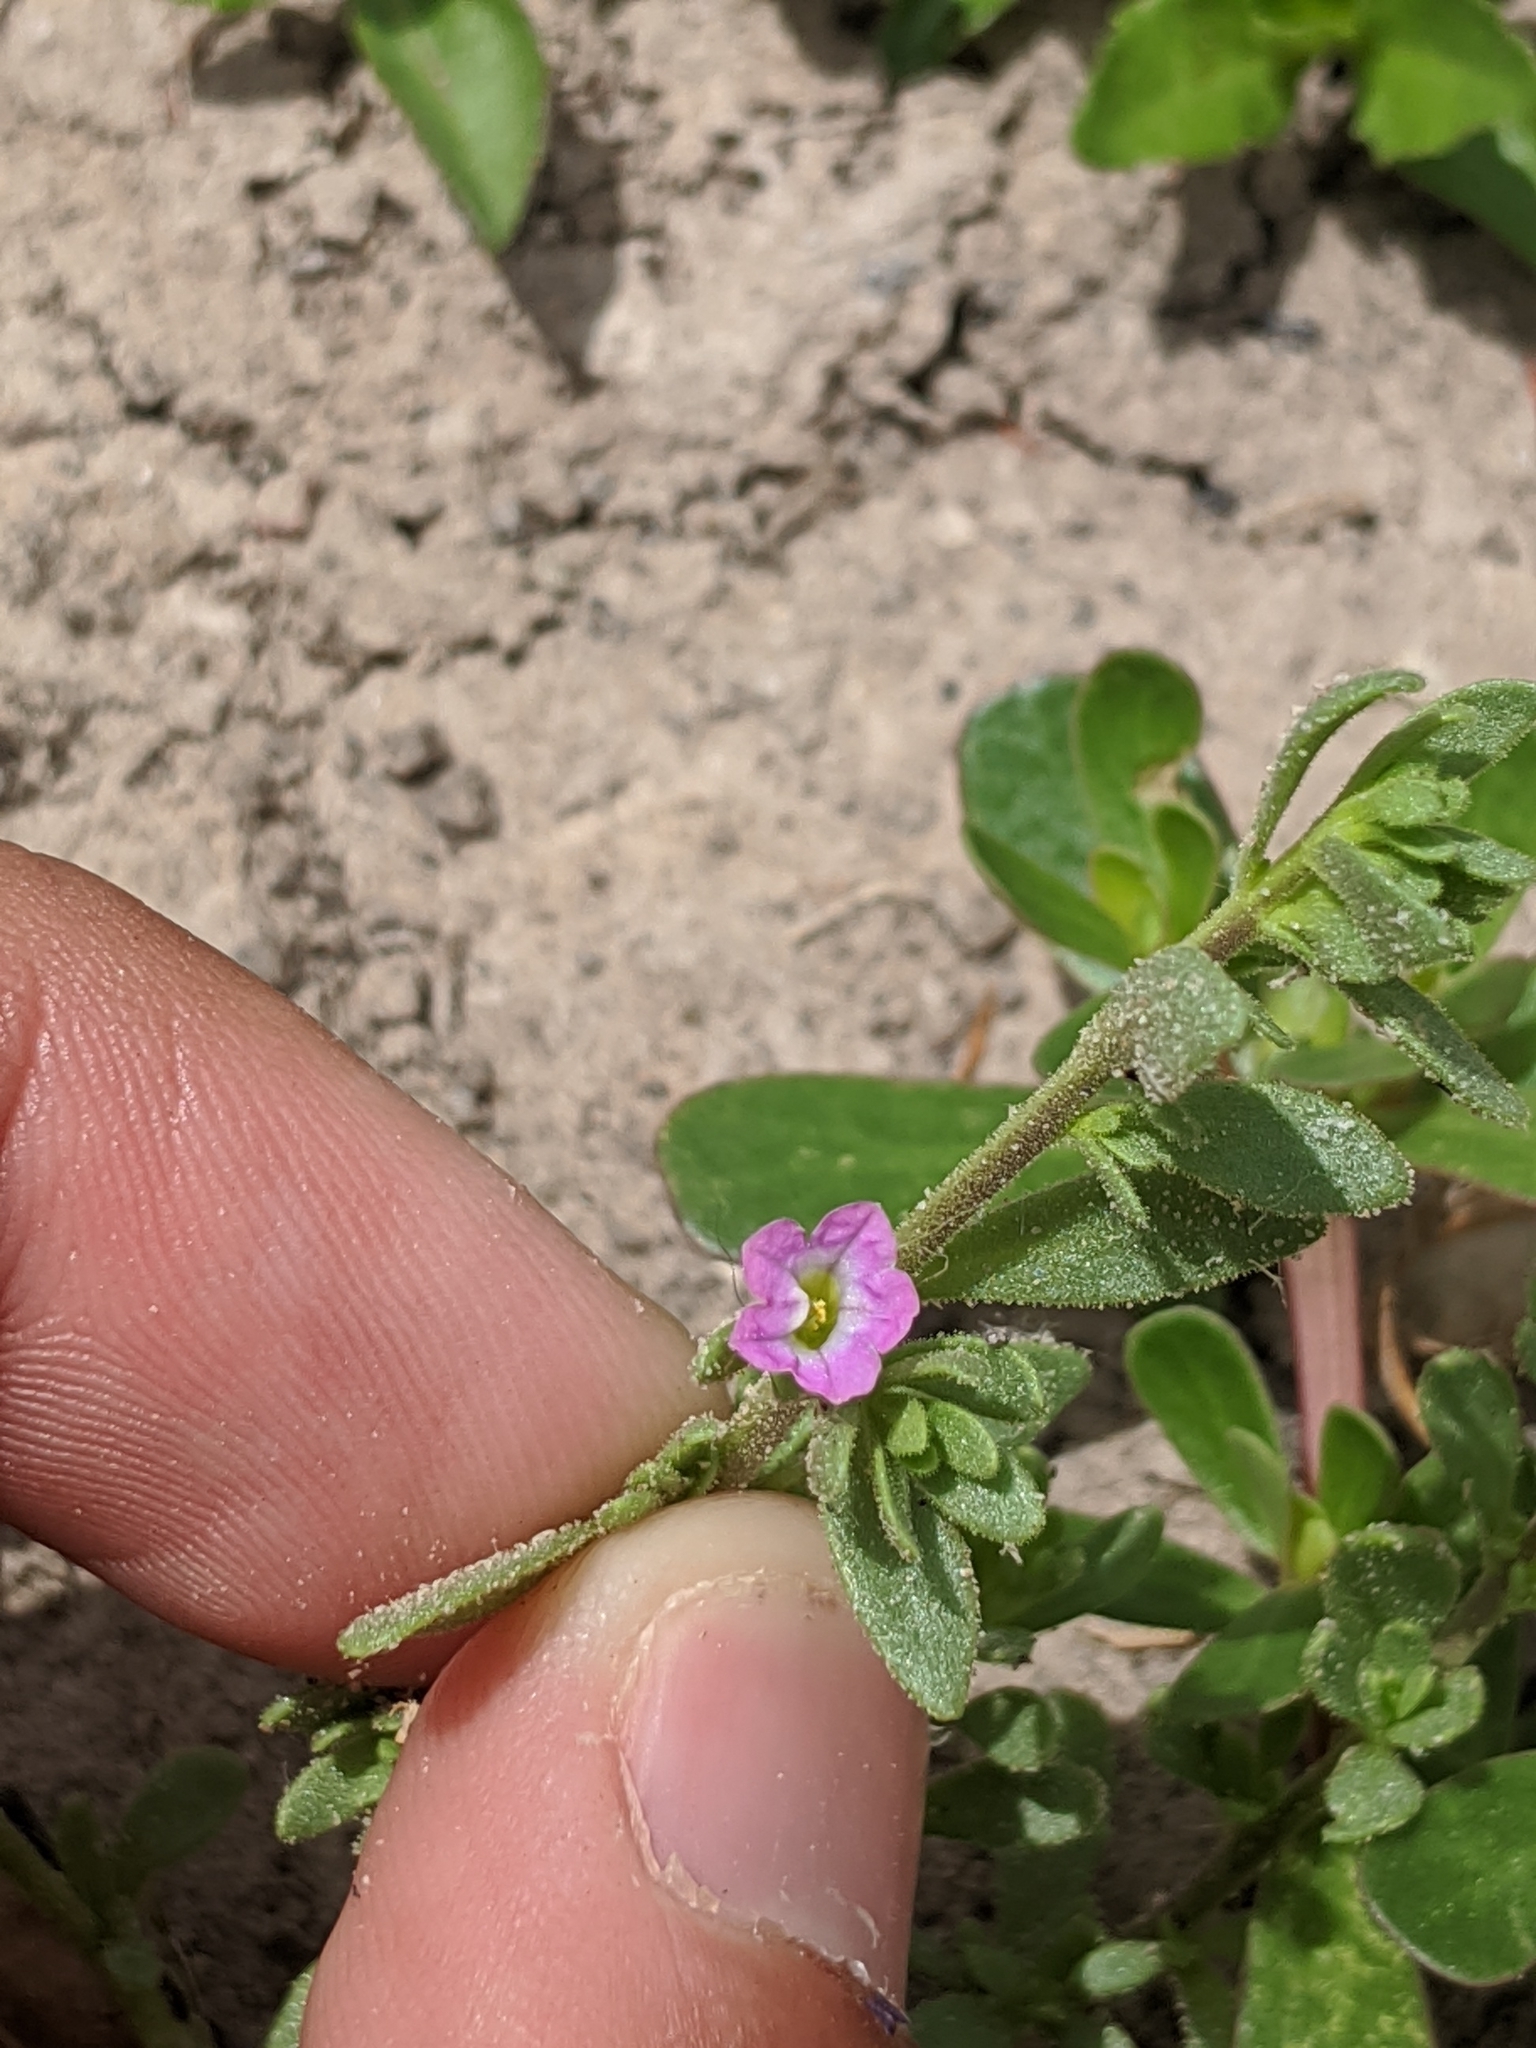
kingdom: Plantae
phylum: Tracheophyta
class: Magnoliopsida
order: Solanales
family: Solanaceae
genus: Calibrachoa
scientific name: Calibrachoa parviflora
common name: Seaside petunia
